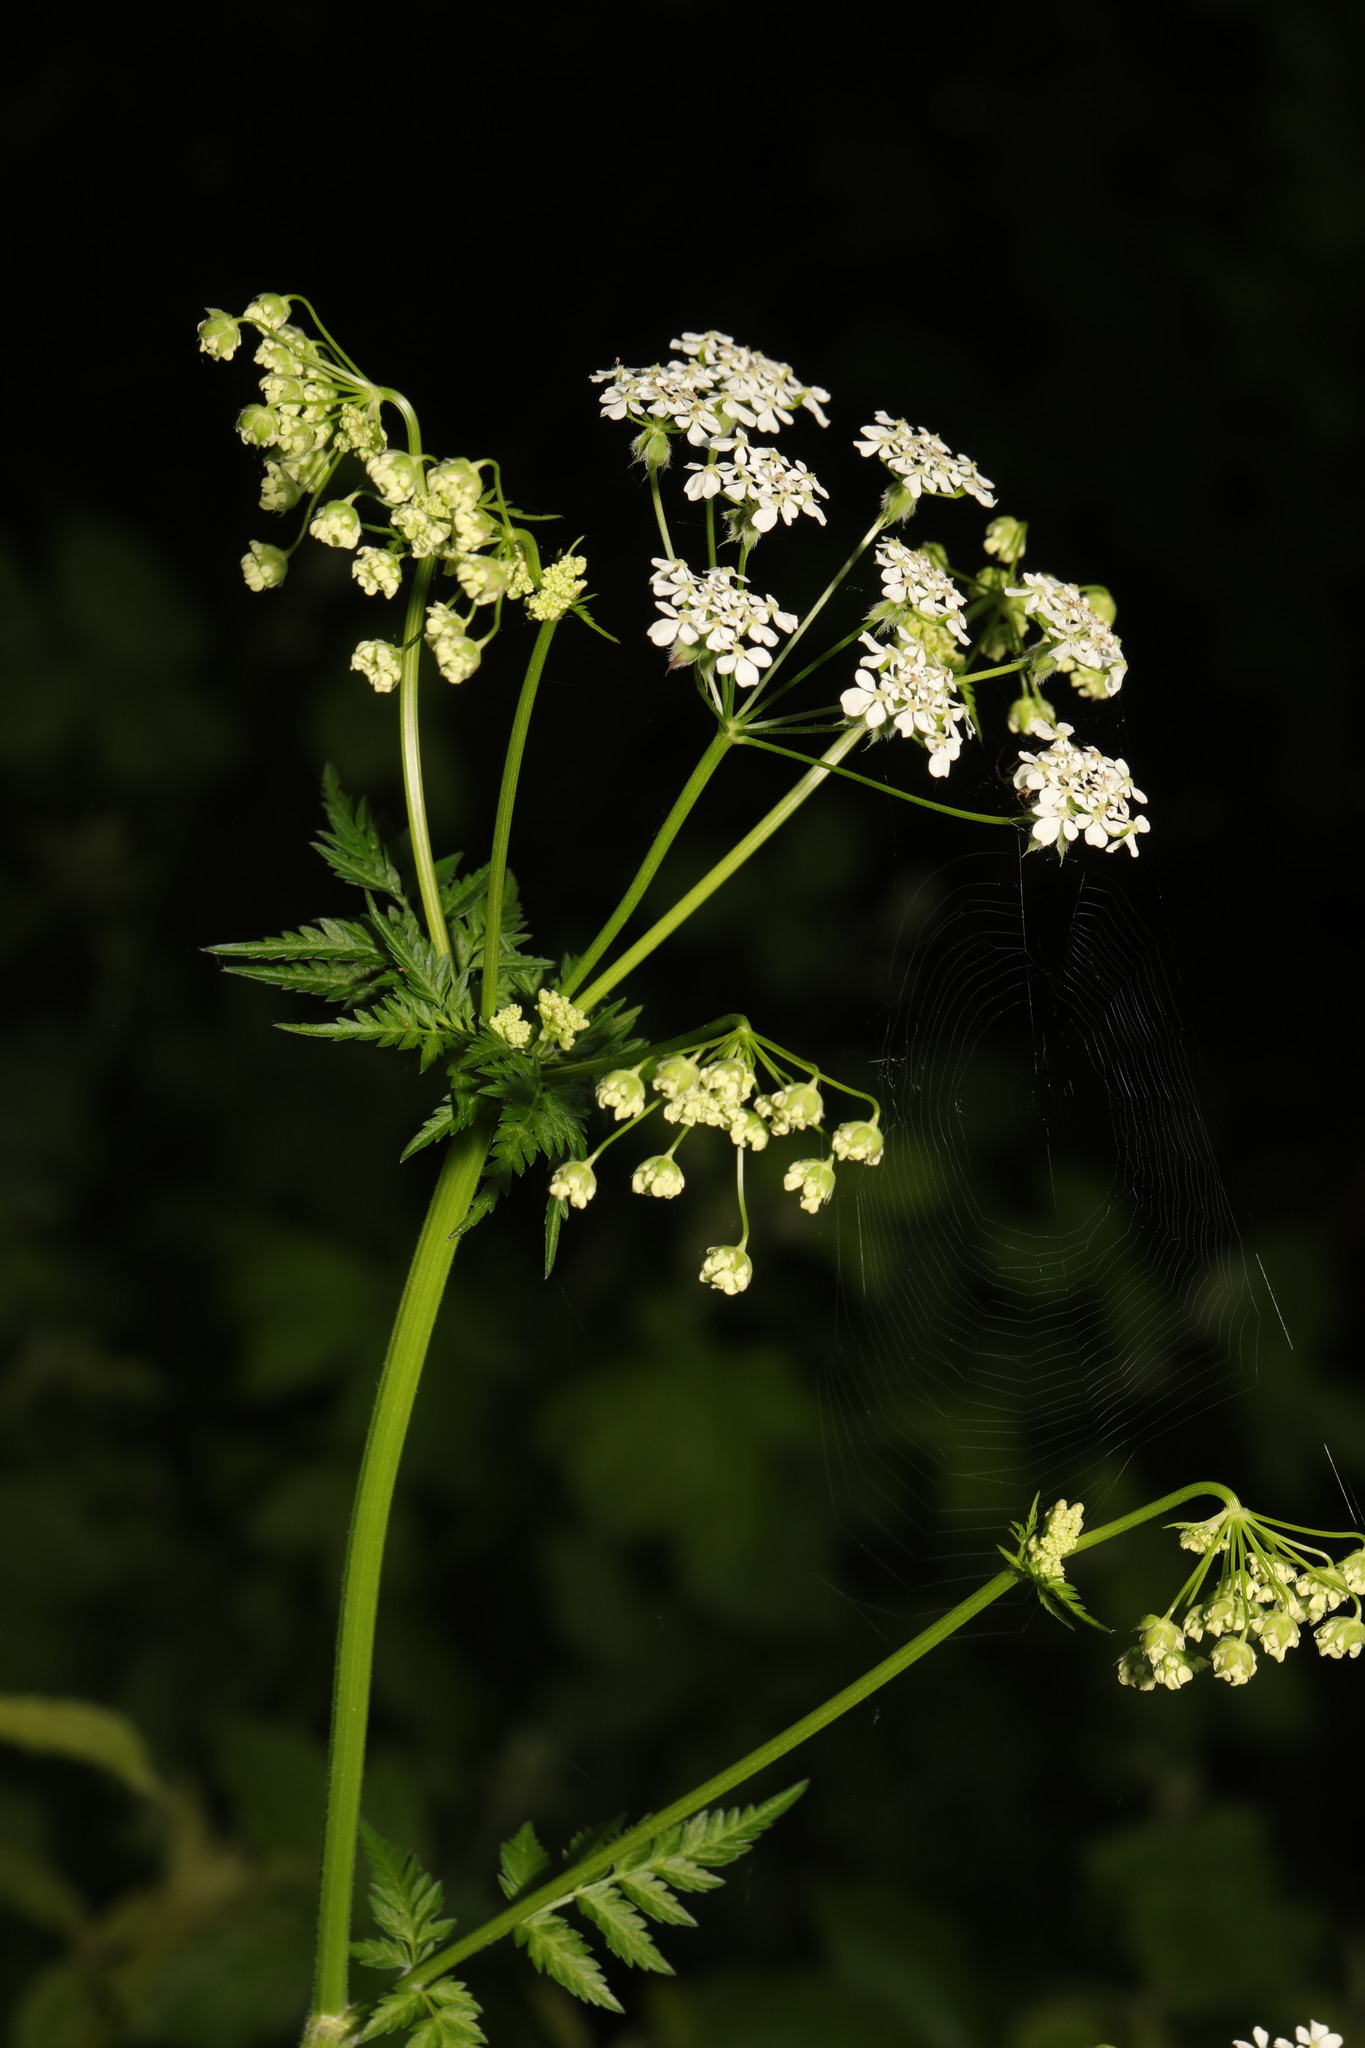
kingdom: Plantae
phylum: Tracheophyta
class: Magnoliopsida
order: Apiales
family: Apiaceae
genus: Anthriscus
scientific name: Anthriscus sylvestris
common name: Cow parsley
